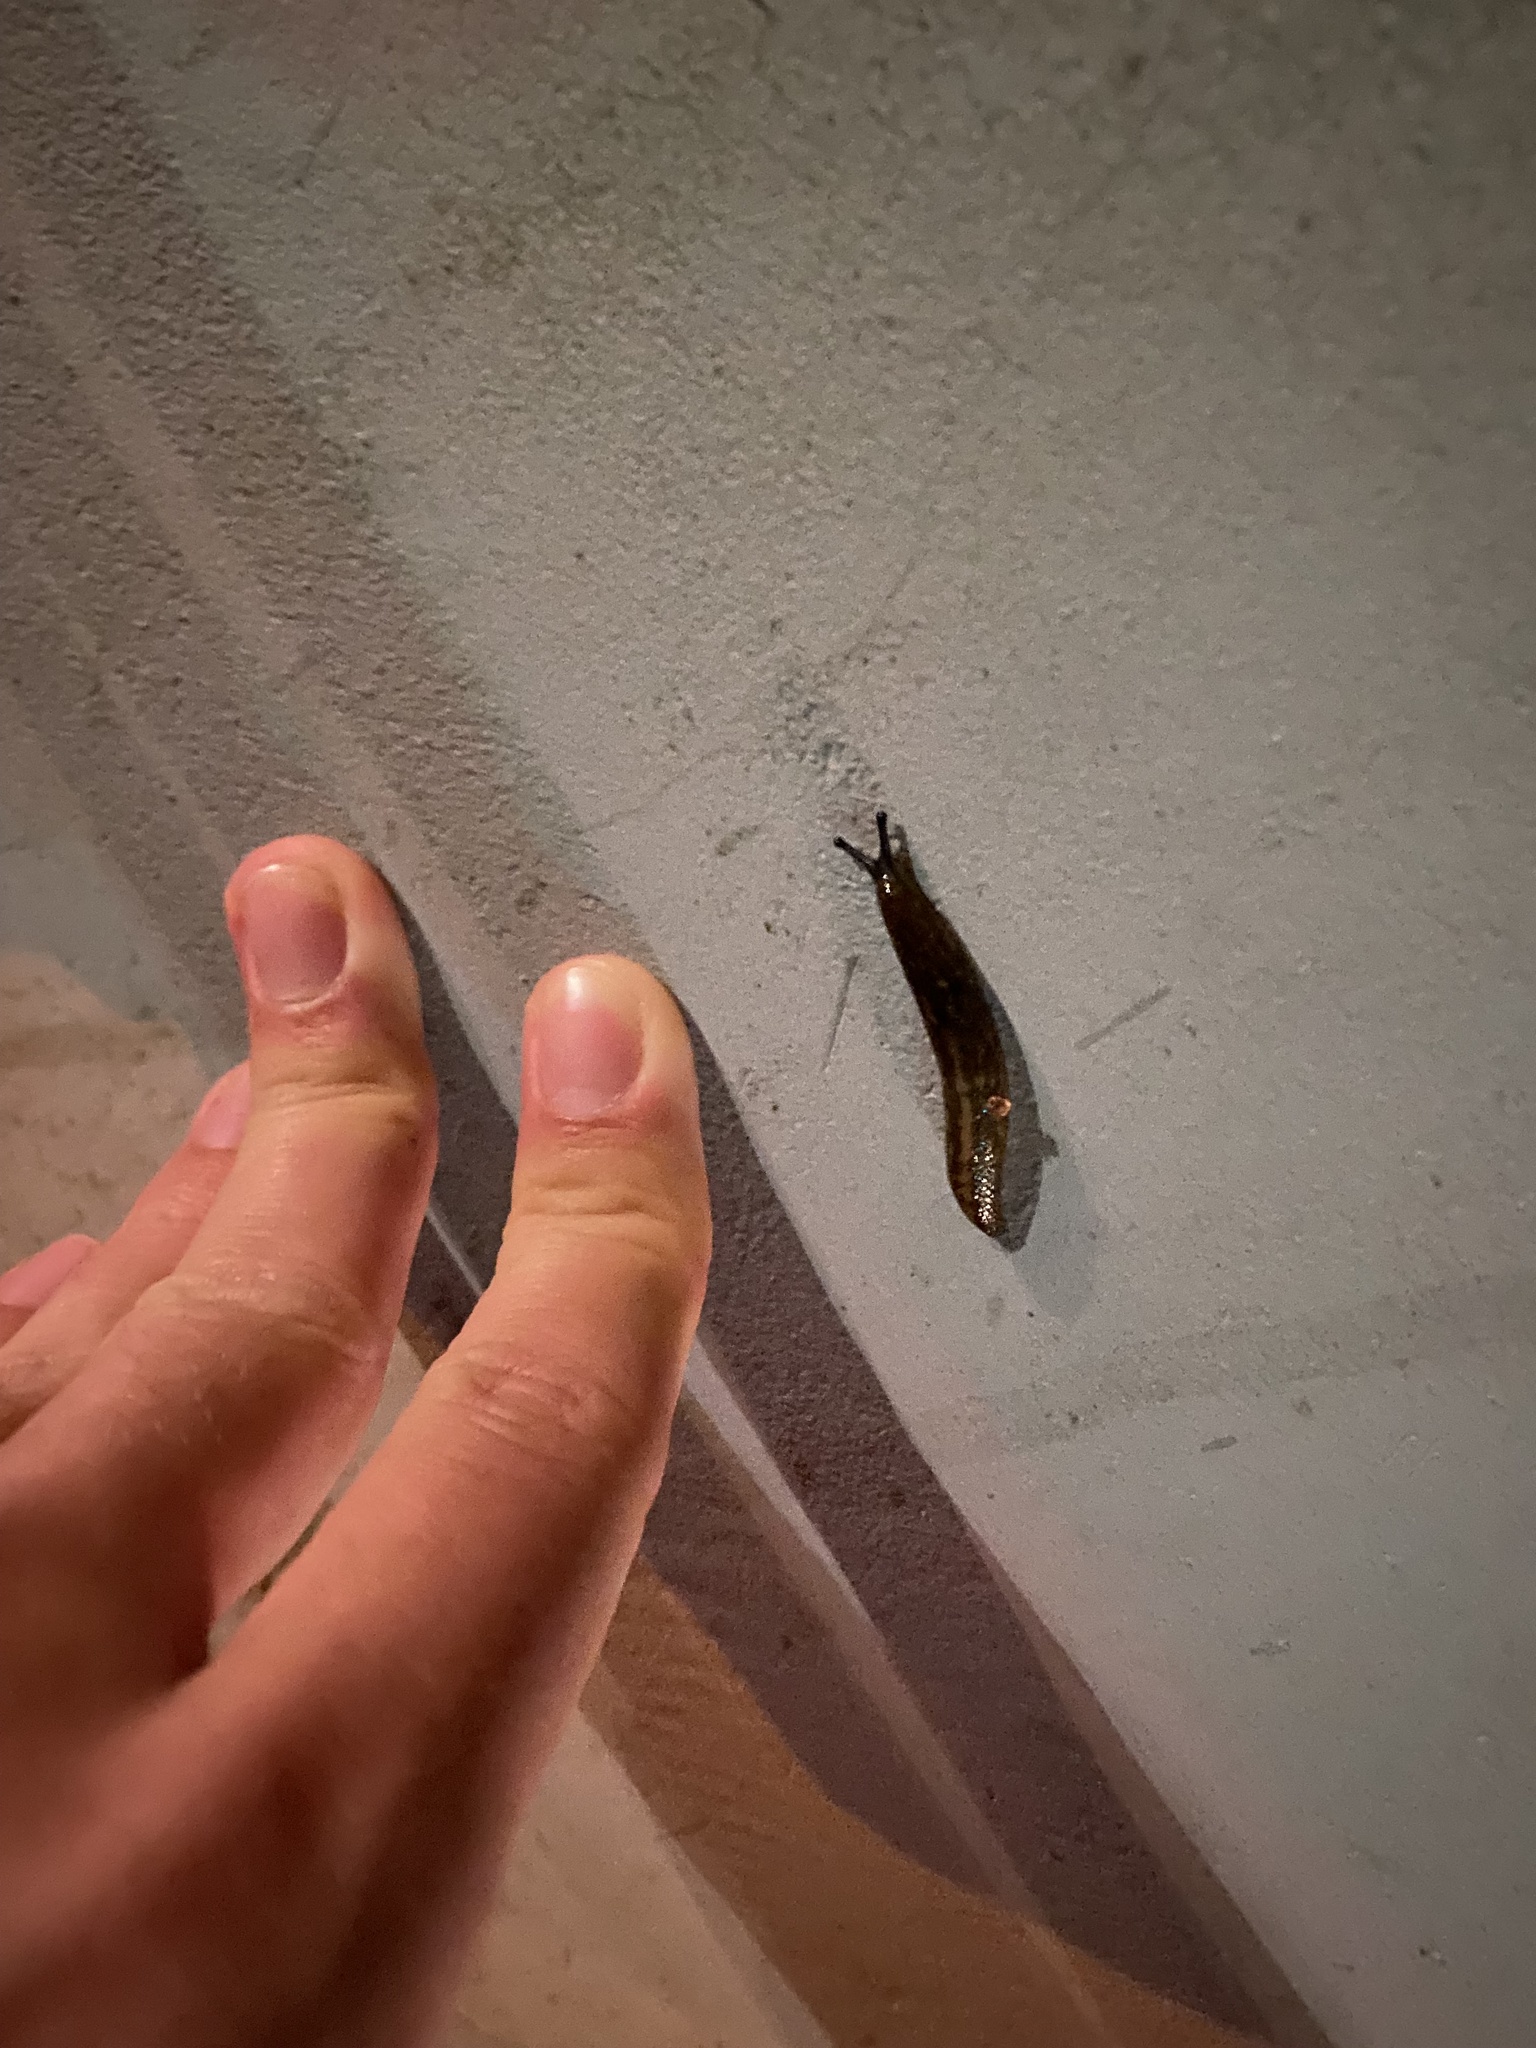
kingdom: Animalia
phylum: Mollusca
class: Gastropoda
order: Stylommatophora
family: Limacidae
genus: Limacus
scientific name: Limacus flavus
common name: Yellow gardenslug
